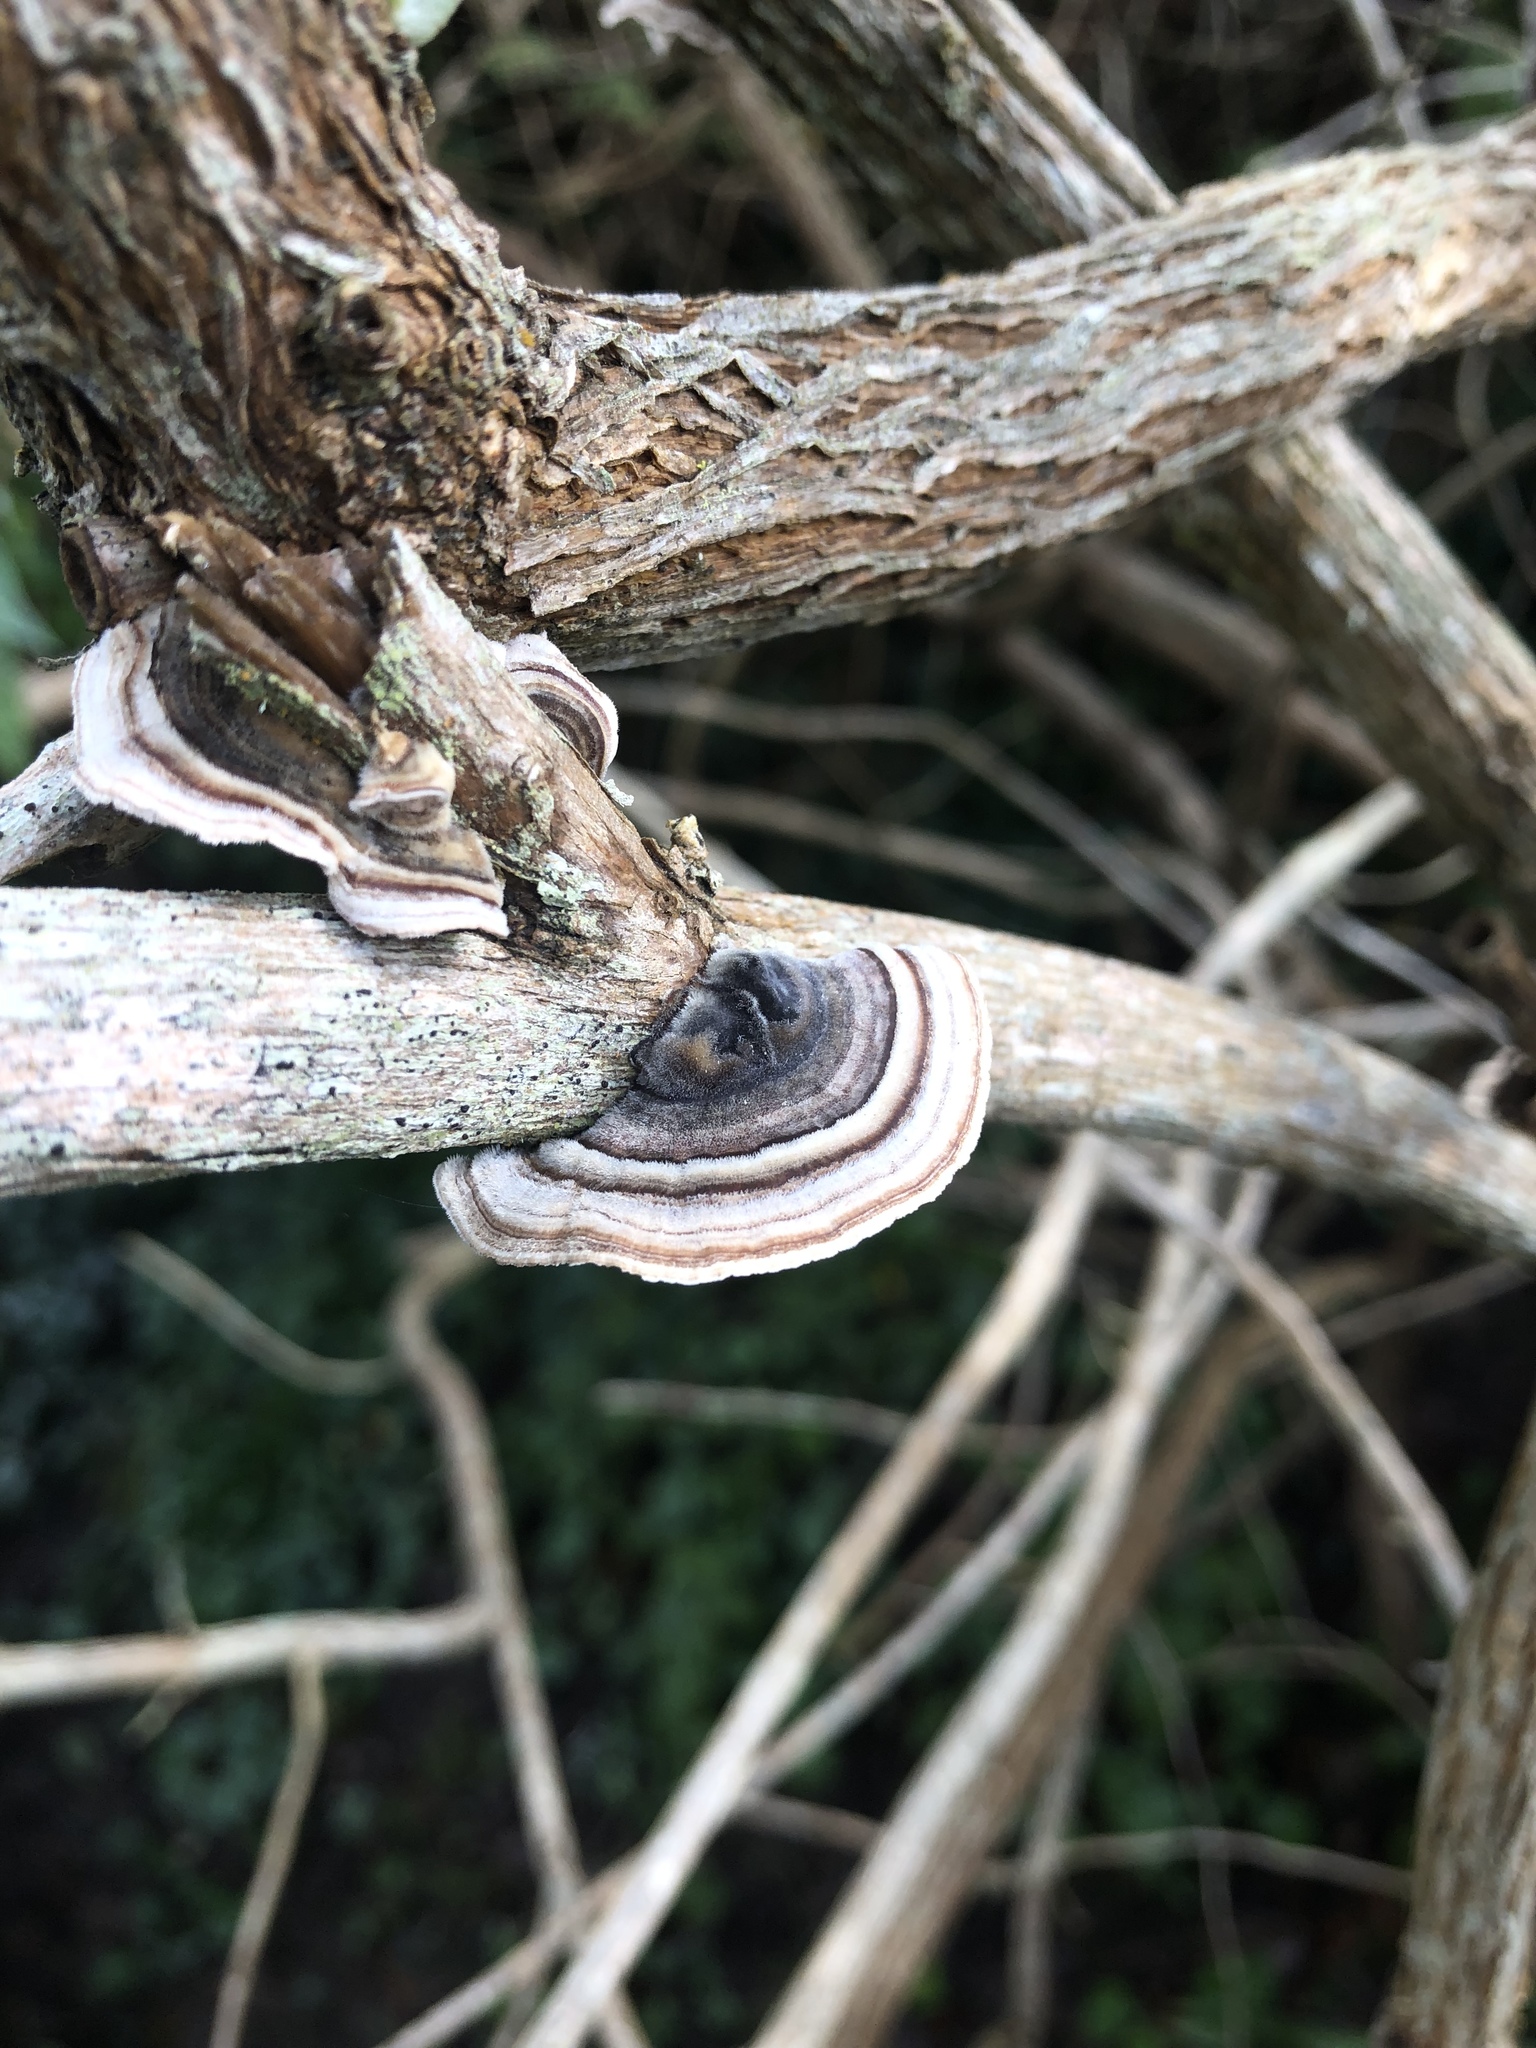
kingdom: Fungi
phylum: Basidiomycota
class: Agaricomycetes
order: Polyporales
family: Polyporaceae
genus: Trametes
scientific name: Trametes versicolor
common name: Turkeytail
